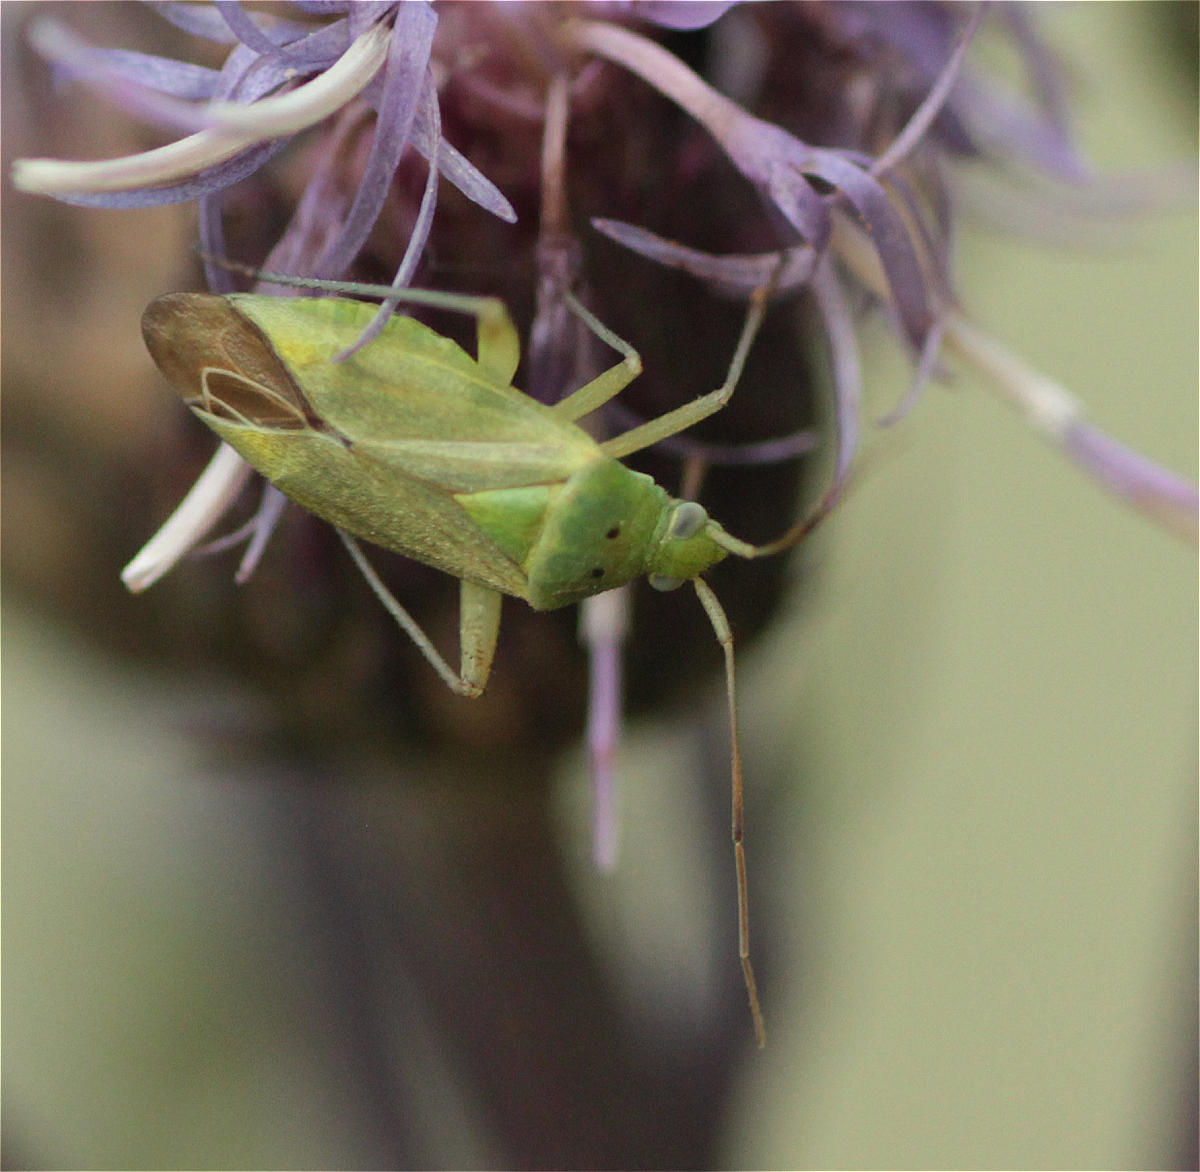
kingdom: Animalia
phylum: Arthropoda
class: Insecta
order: Hemiptera
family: Miridae
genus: Closterotomus
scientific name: Closterotomus norvegicus
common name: Plant bug
